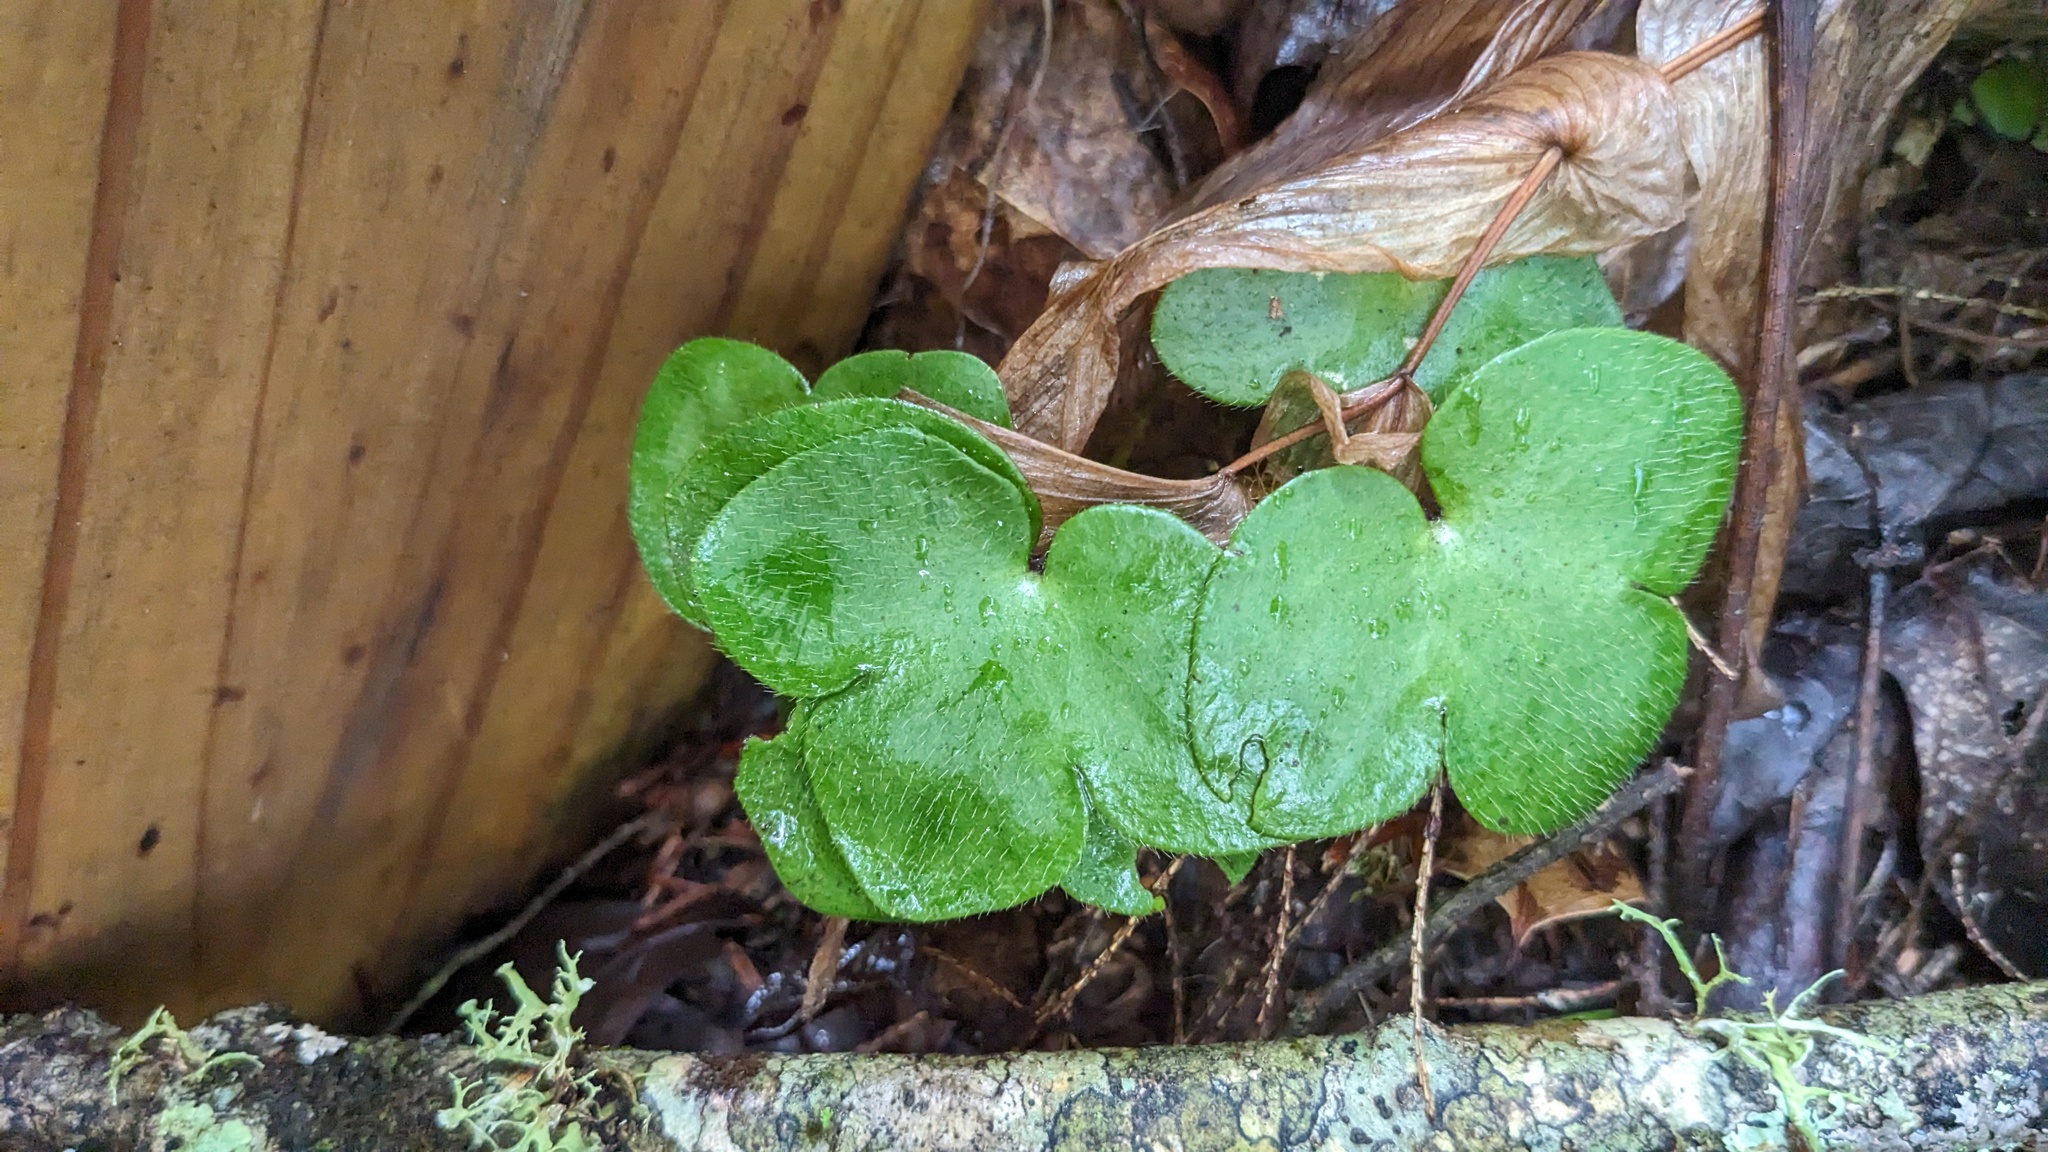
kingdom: Plantae
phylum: Tracheophyta
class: Magnoliopsida
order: Ranunculales
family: Ranunculaceae
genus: Hepatica
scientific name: Hepatica americana
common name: American hepatica
